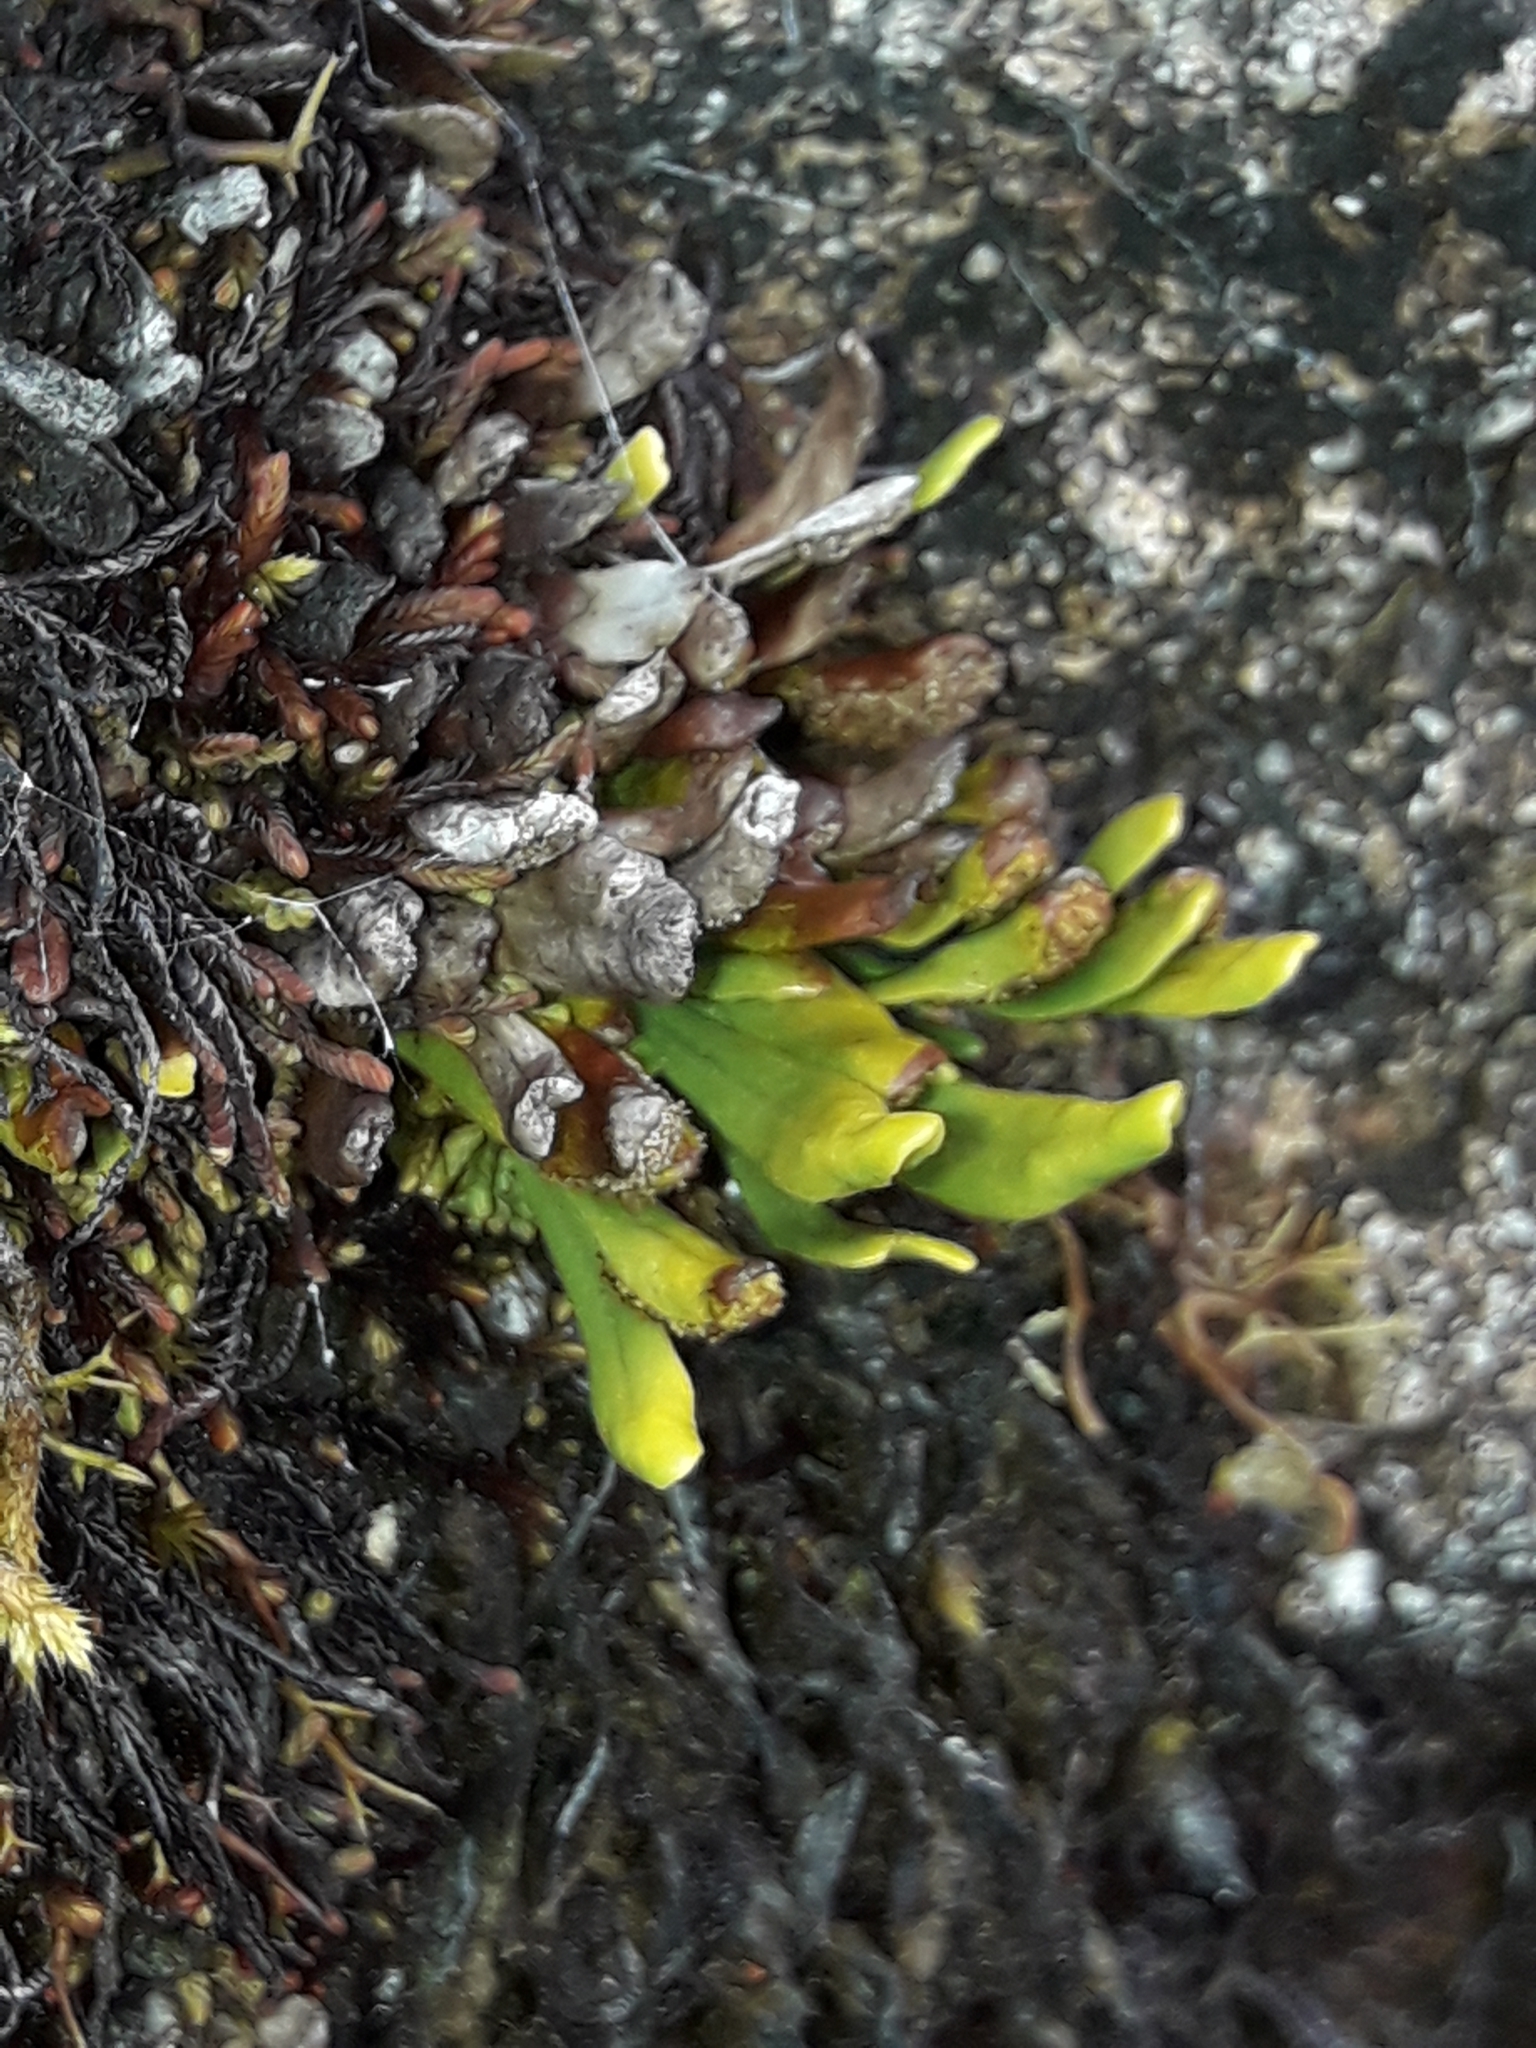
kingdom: Plantae
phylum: Tracheophyta
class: Polypodiopsida
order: Polypodiales
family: Polypodiaceae
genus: Notogrammitis
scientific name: Notogrammitis crassior
